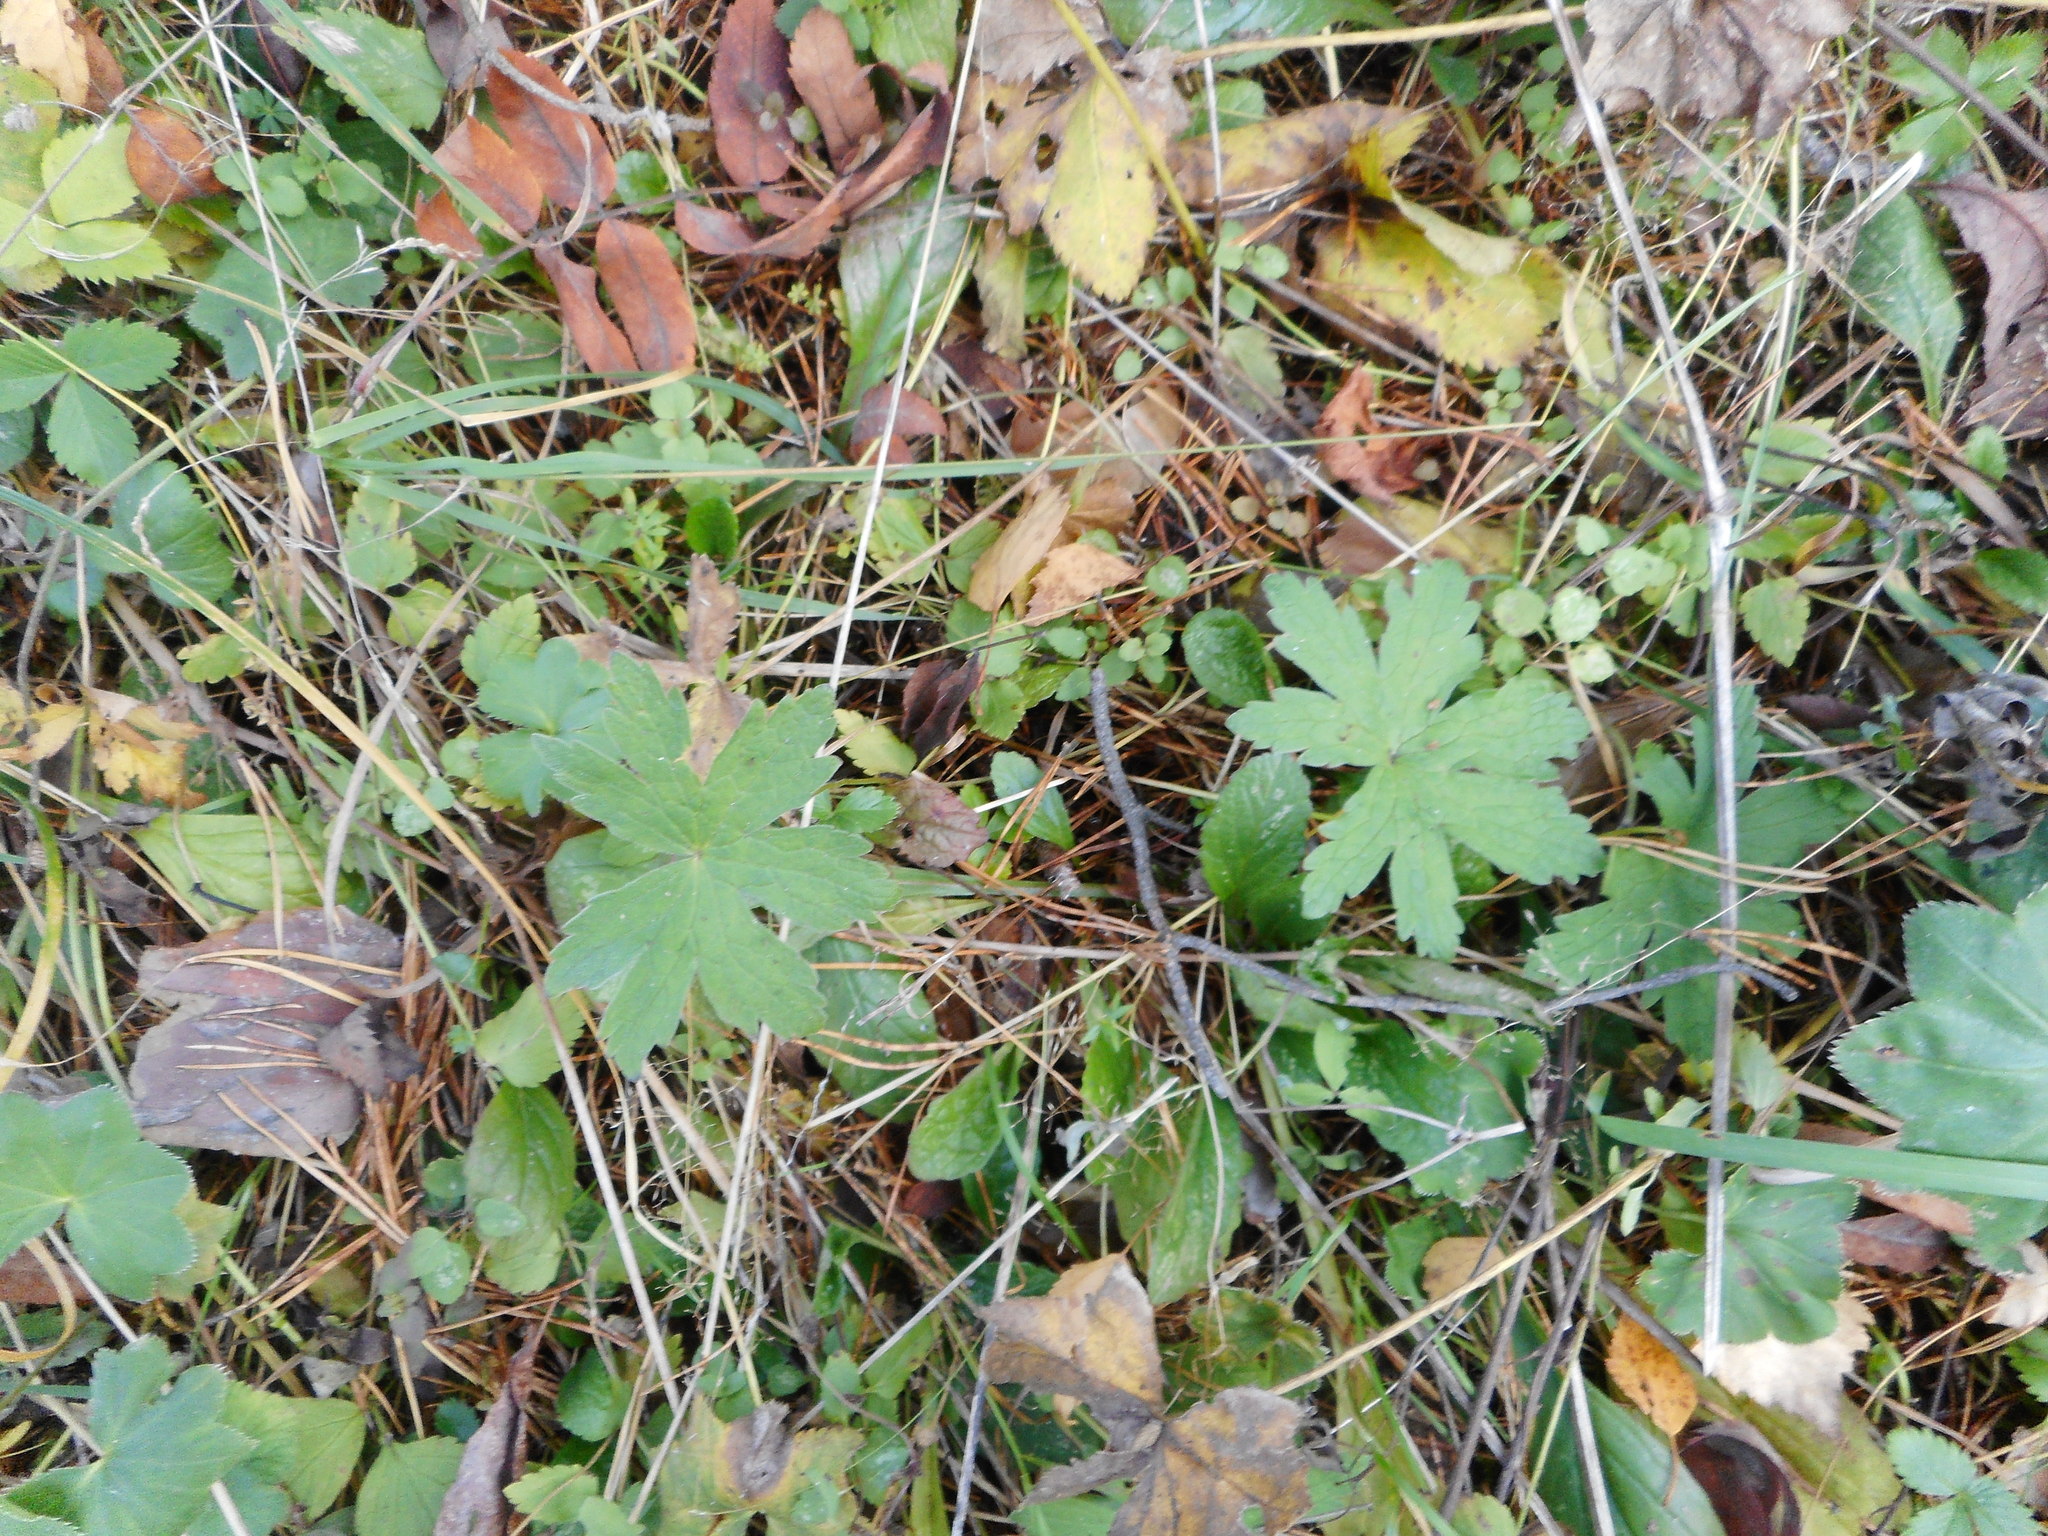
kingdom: Plantae
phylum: Tracheophyta
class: Magnoliopsida
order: Geraniales
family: Geraniaceae
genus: Geranium
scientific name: Geranium sylvaticum
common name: Wood crane's-bill
